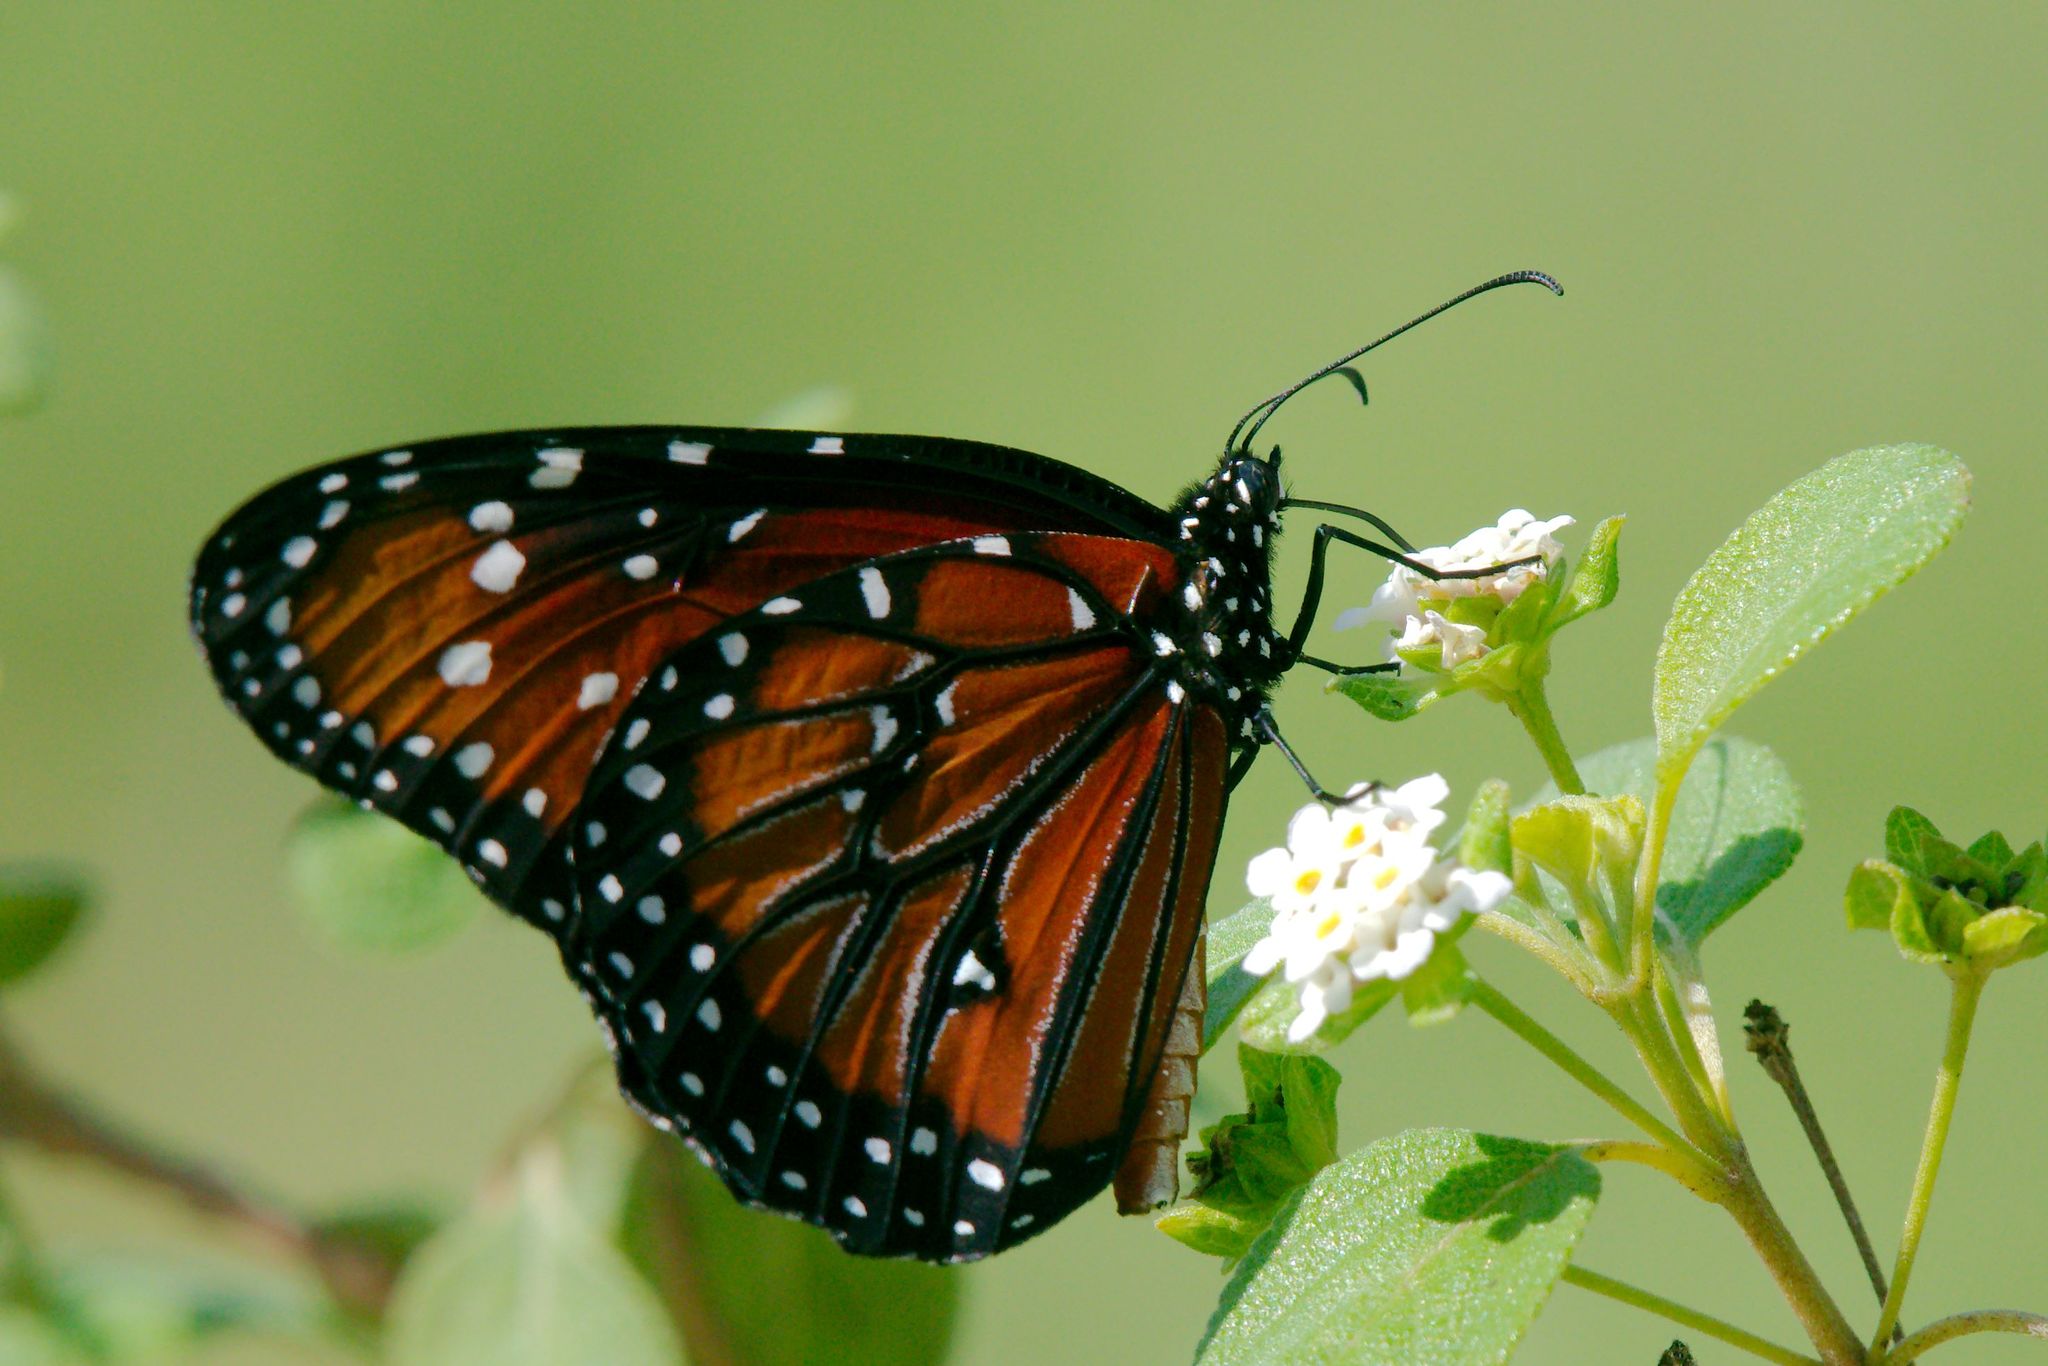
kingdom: Animalia
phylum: Arthropoda
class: Insecta
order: Lepidoptera
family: Nymphalidae
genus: Danaus
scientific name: Danaus gilippus
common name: Queen
